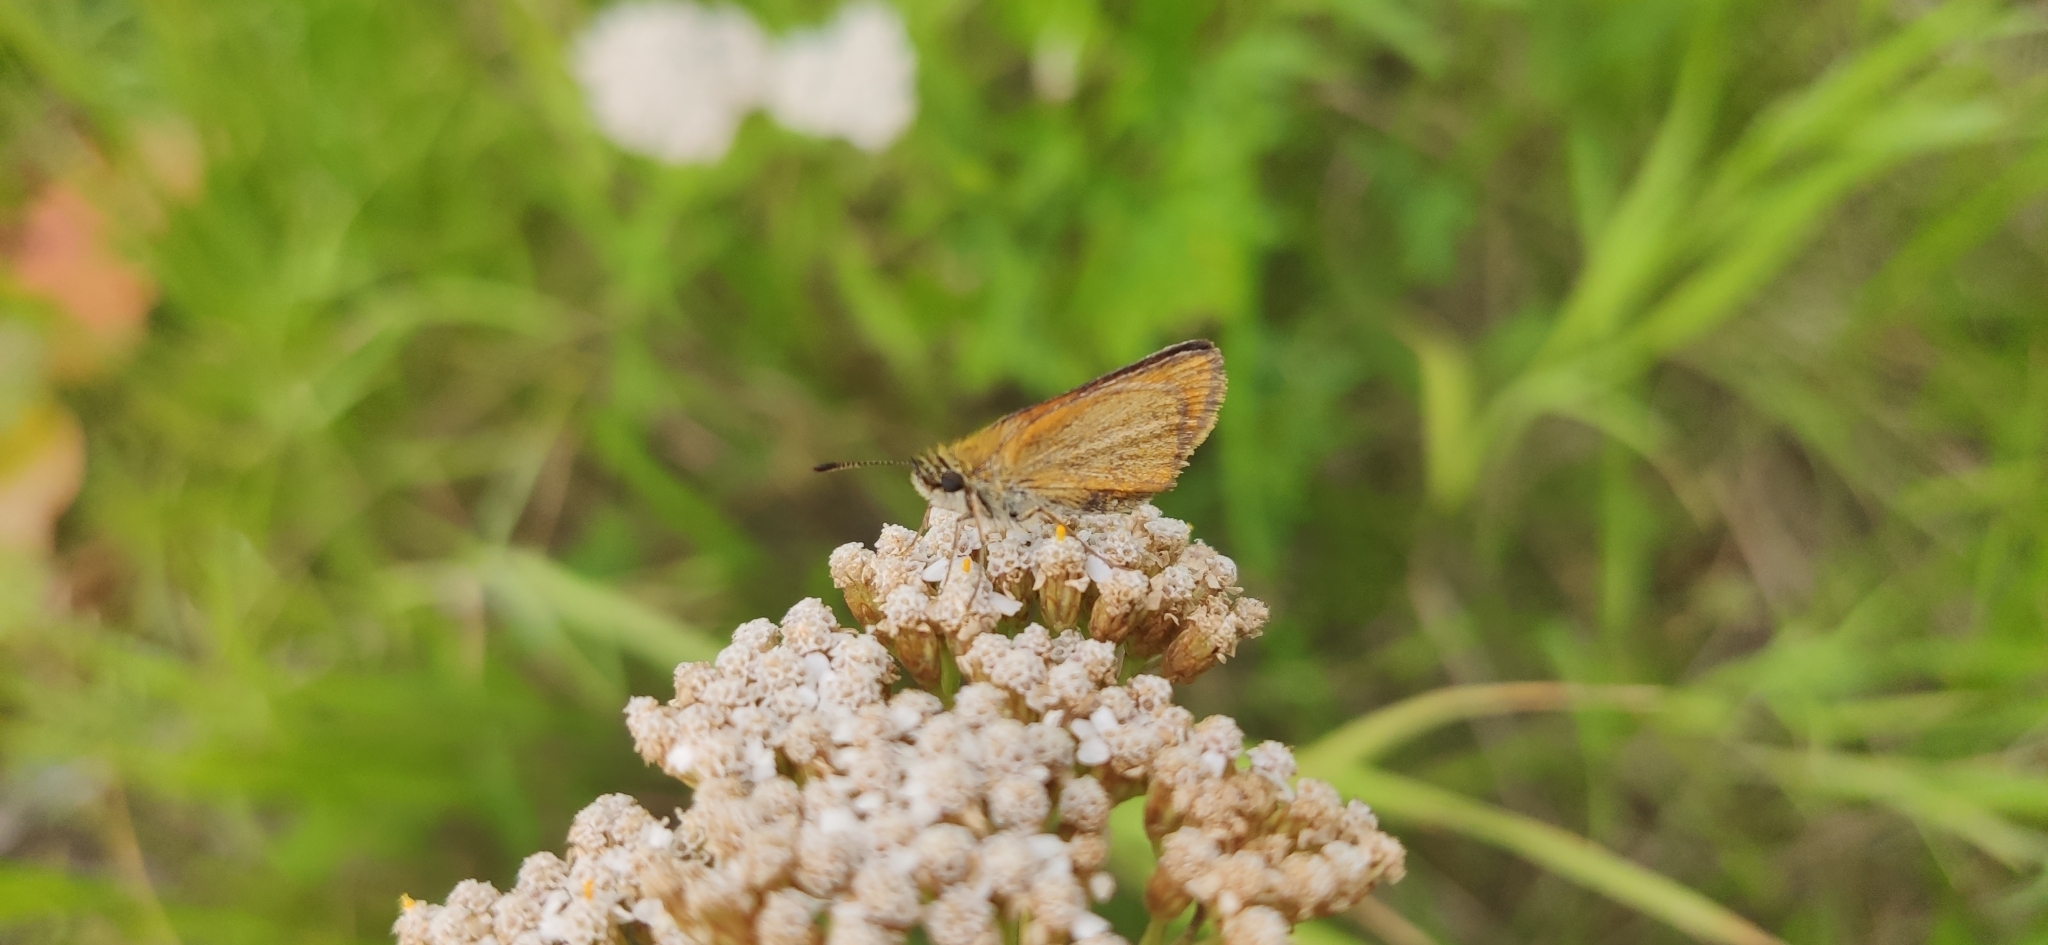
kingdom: Animalia
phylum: Arthropoda
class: Insecta
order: Lepidoptera
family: Hesperiidae
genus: Thymelicus
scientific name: Thymelicus lineola
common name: Essex skipper
